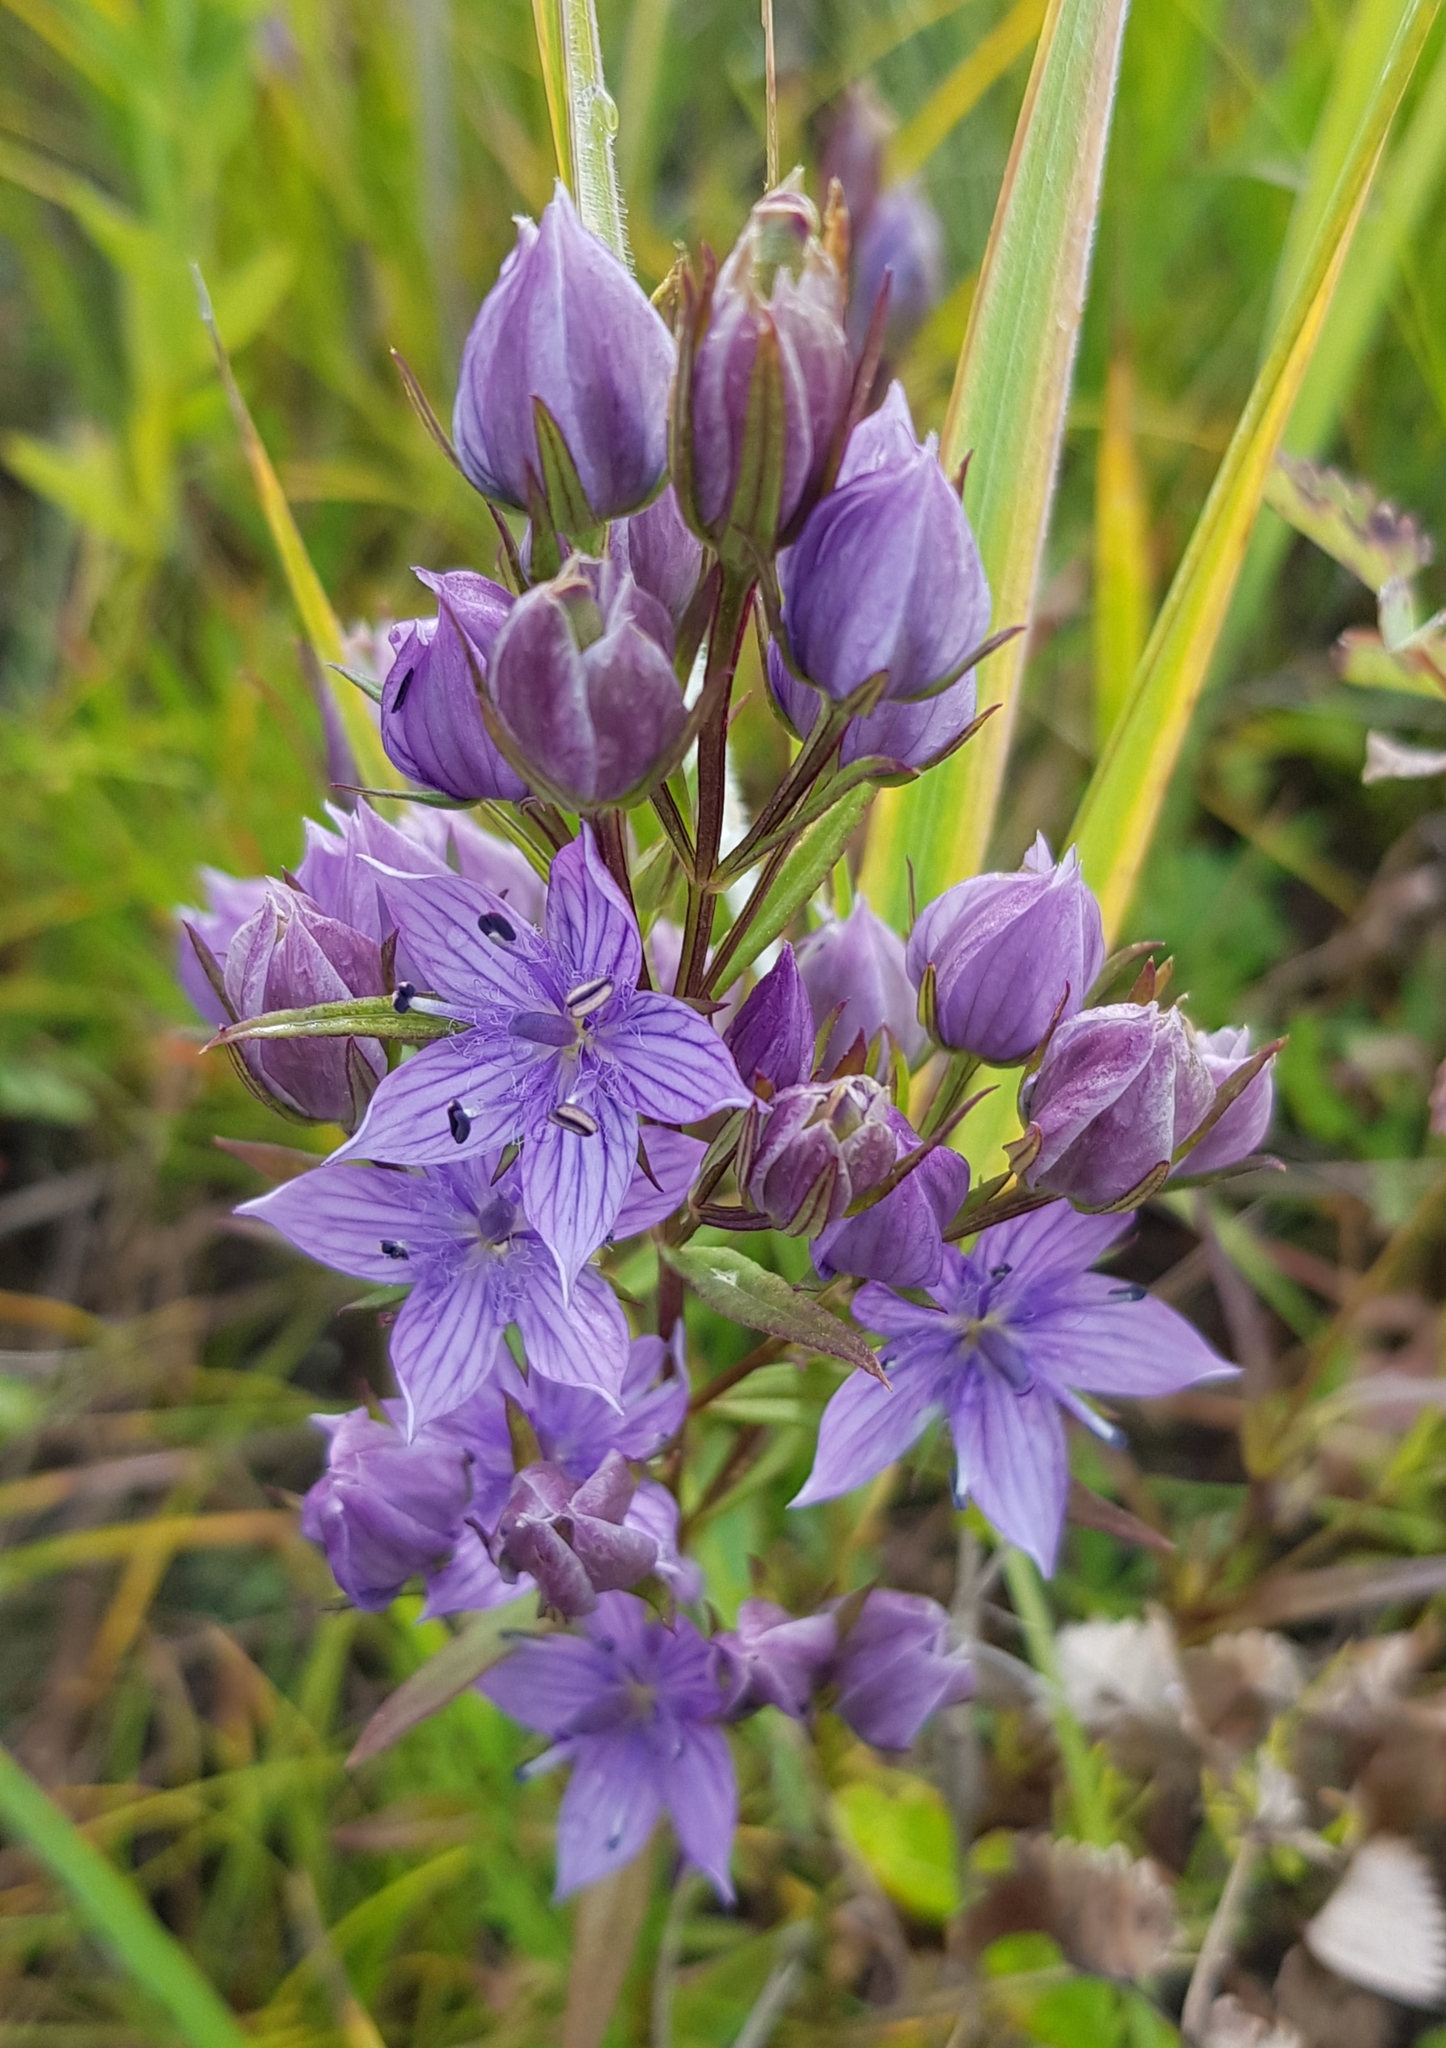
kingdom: Plantae
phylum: Tracheophyta
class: Magnoliopsida
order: Gentianales
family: Gentianaceae
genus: Lomatogonium
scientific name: Lomatogonium rotatum
